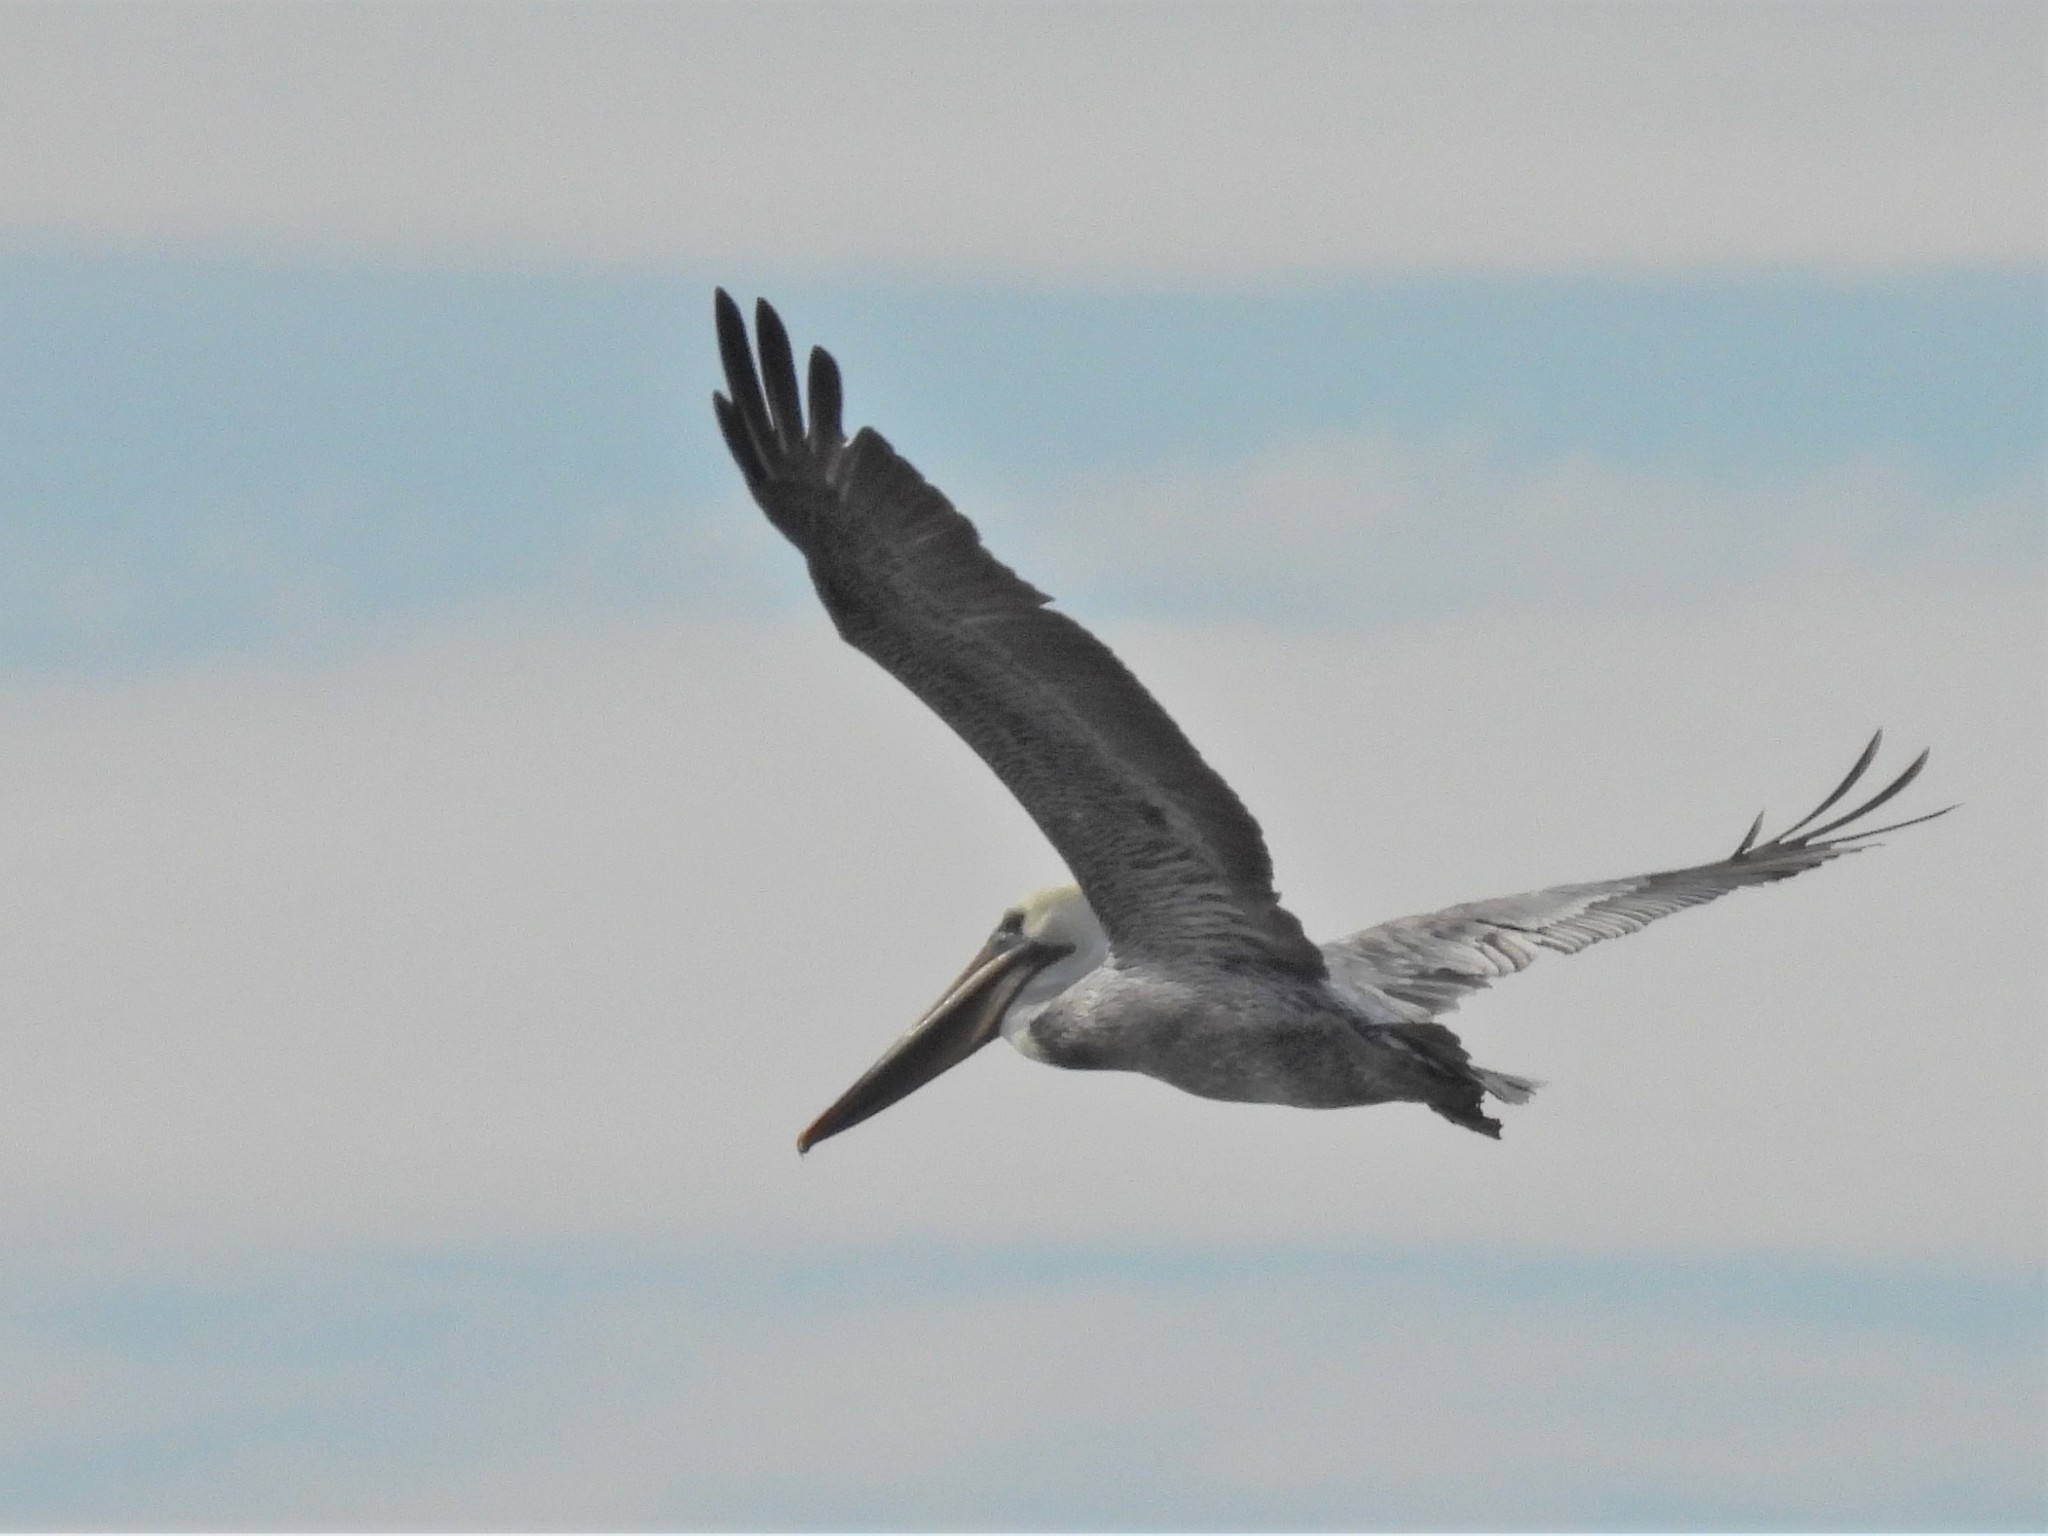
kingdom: Animalia
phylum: Chordata
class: Aves
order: Pelecaniformes
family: Pelecanidae
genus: Pelecanus
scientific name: Pelecanus occidentalis
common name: Brown pelican
